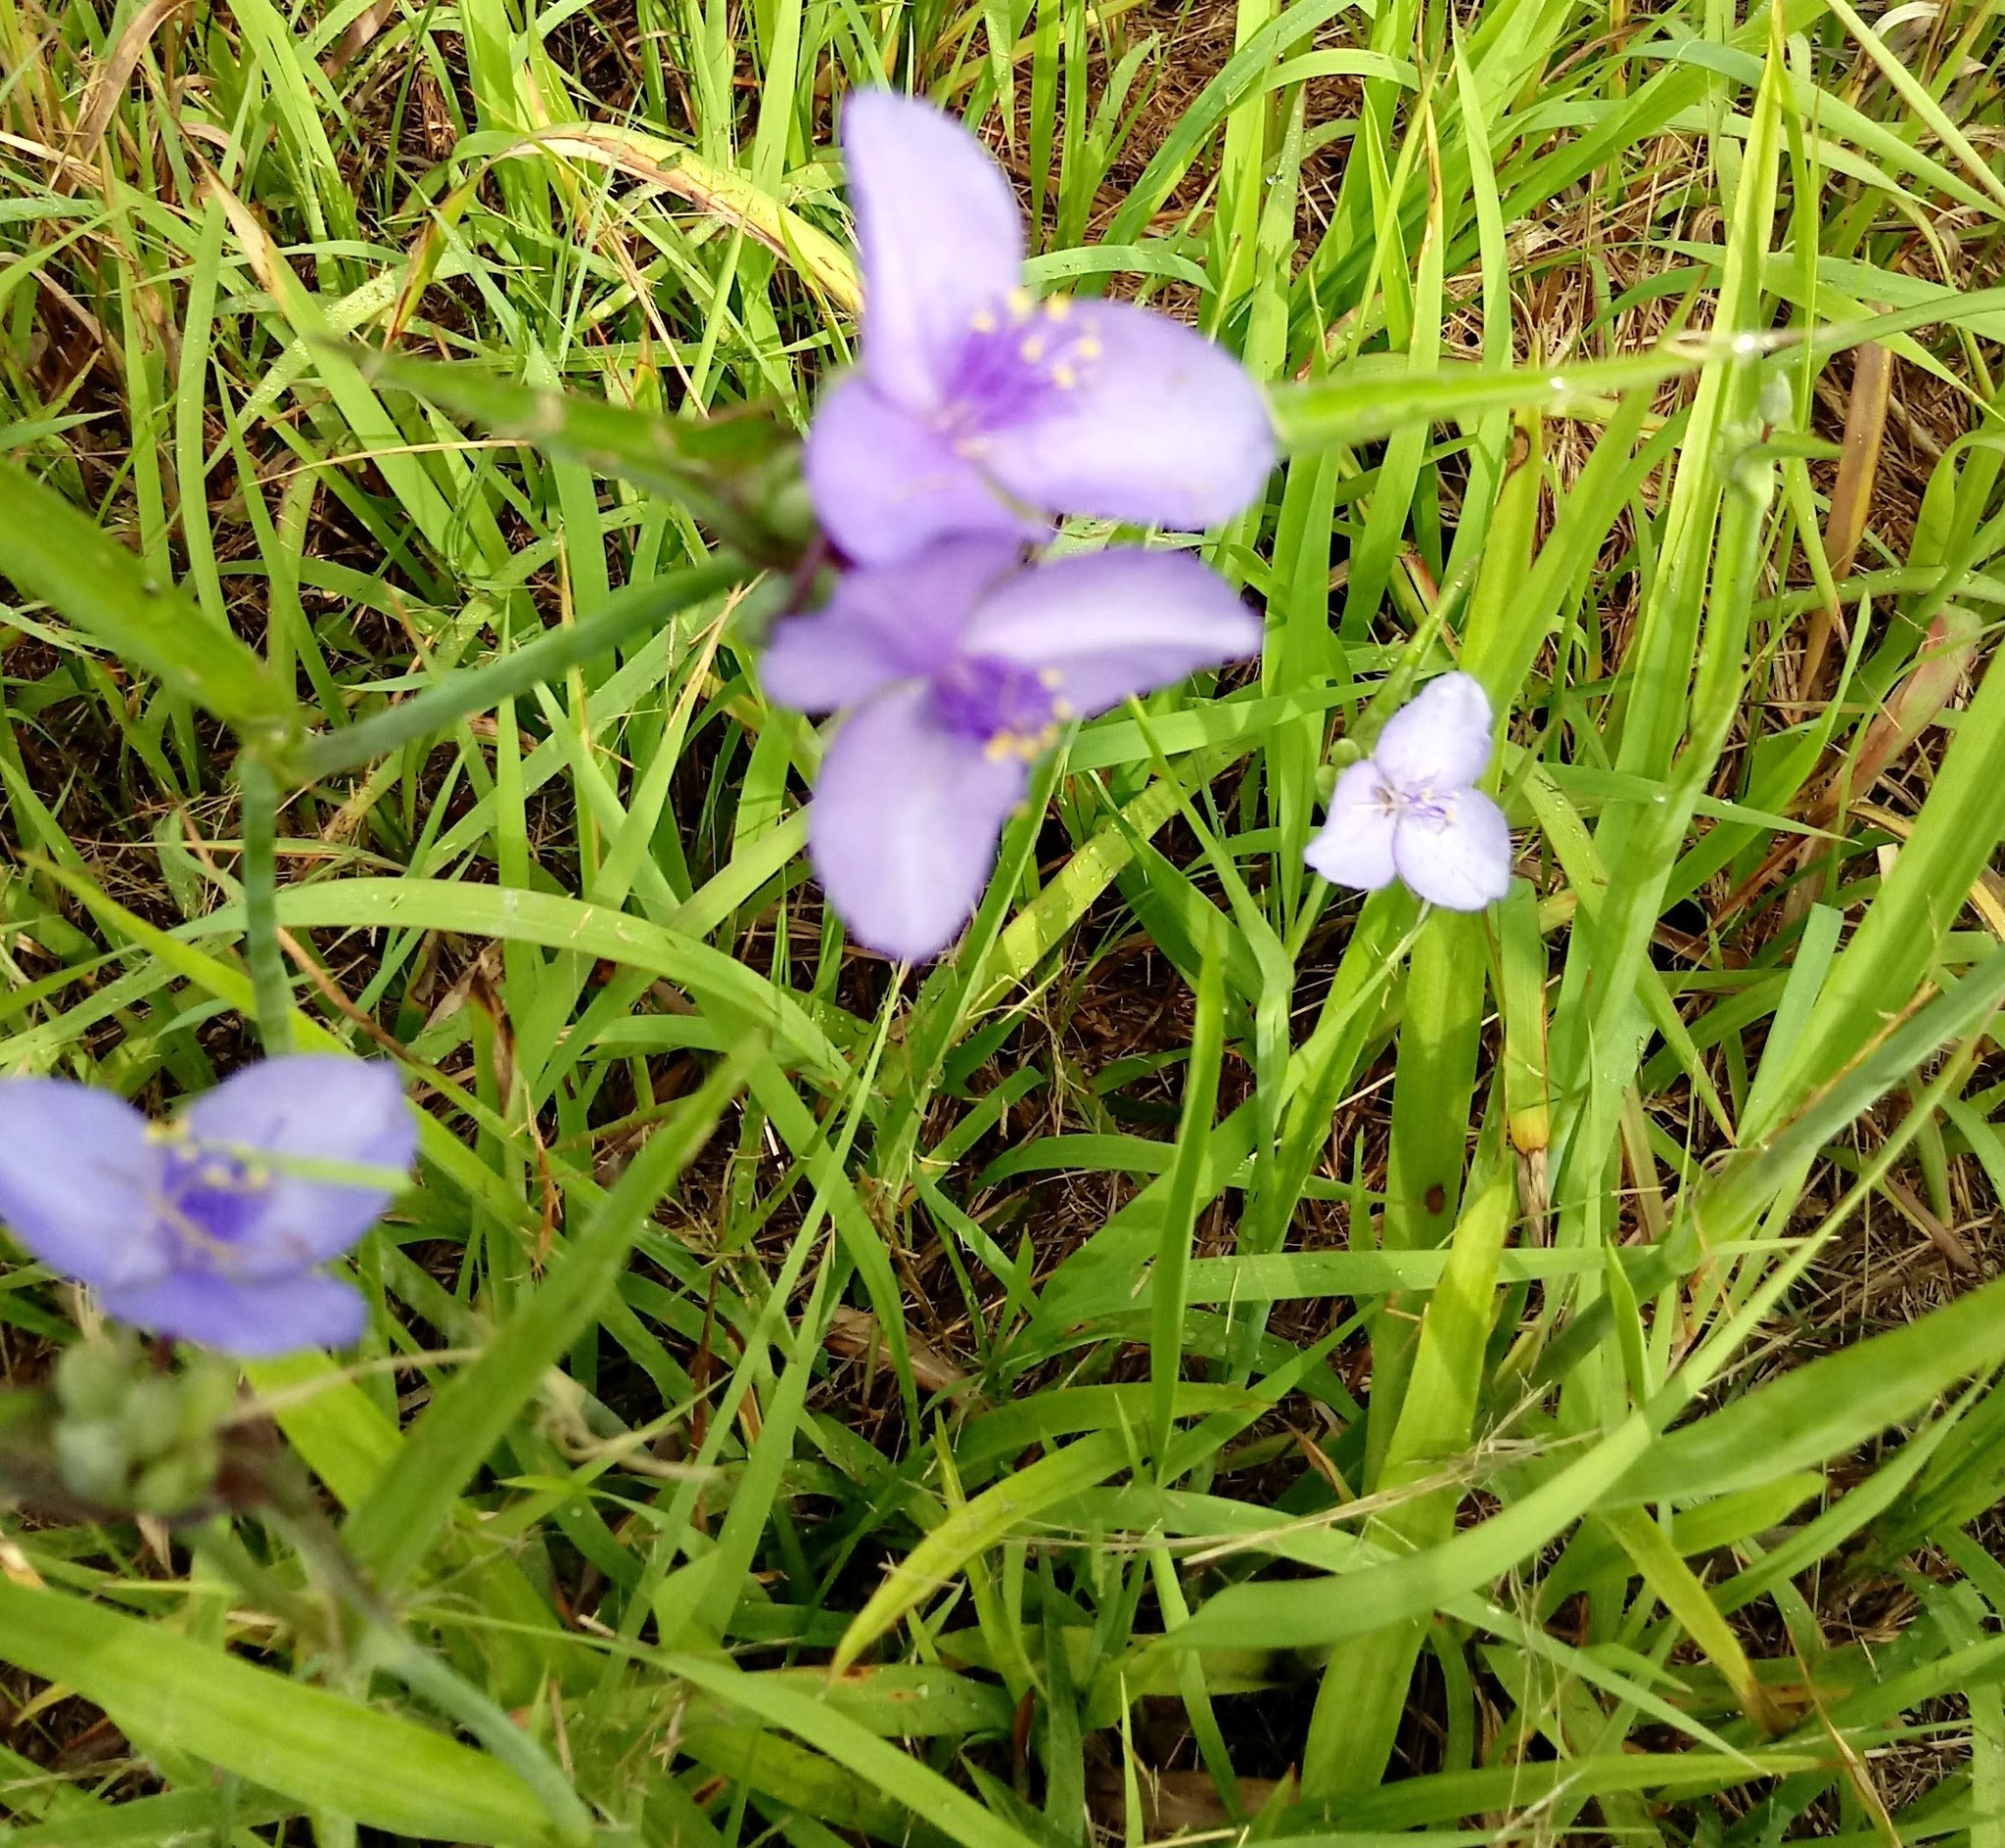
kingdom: Plantae
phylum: Tracheophyta
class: Liliopsida
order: Commelinales
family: Commelinaceae
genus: Tradescantia
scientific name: Tradescantia ohiensis
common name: Ohio spiderwort
